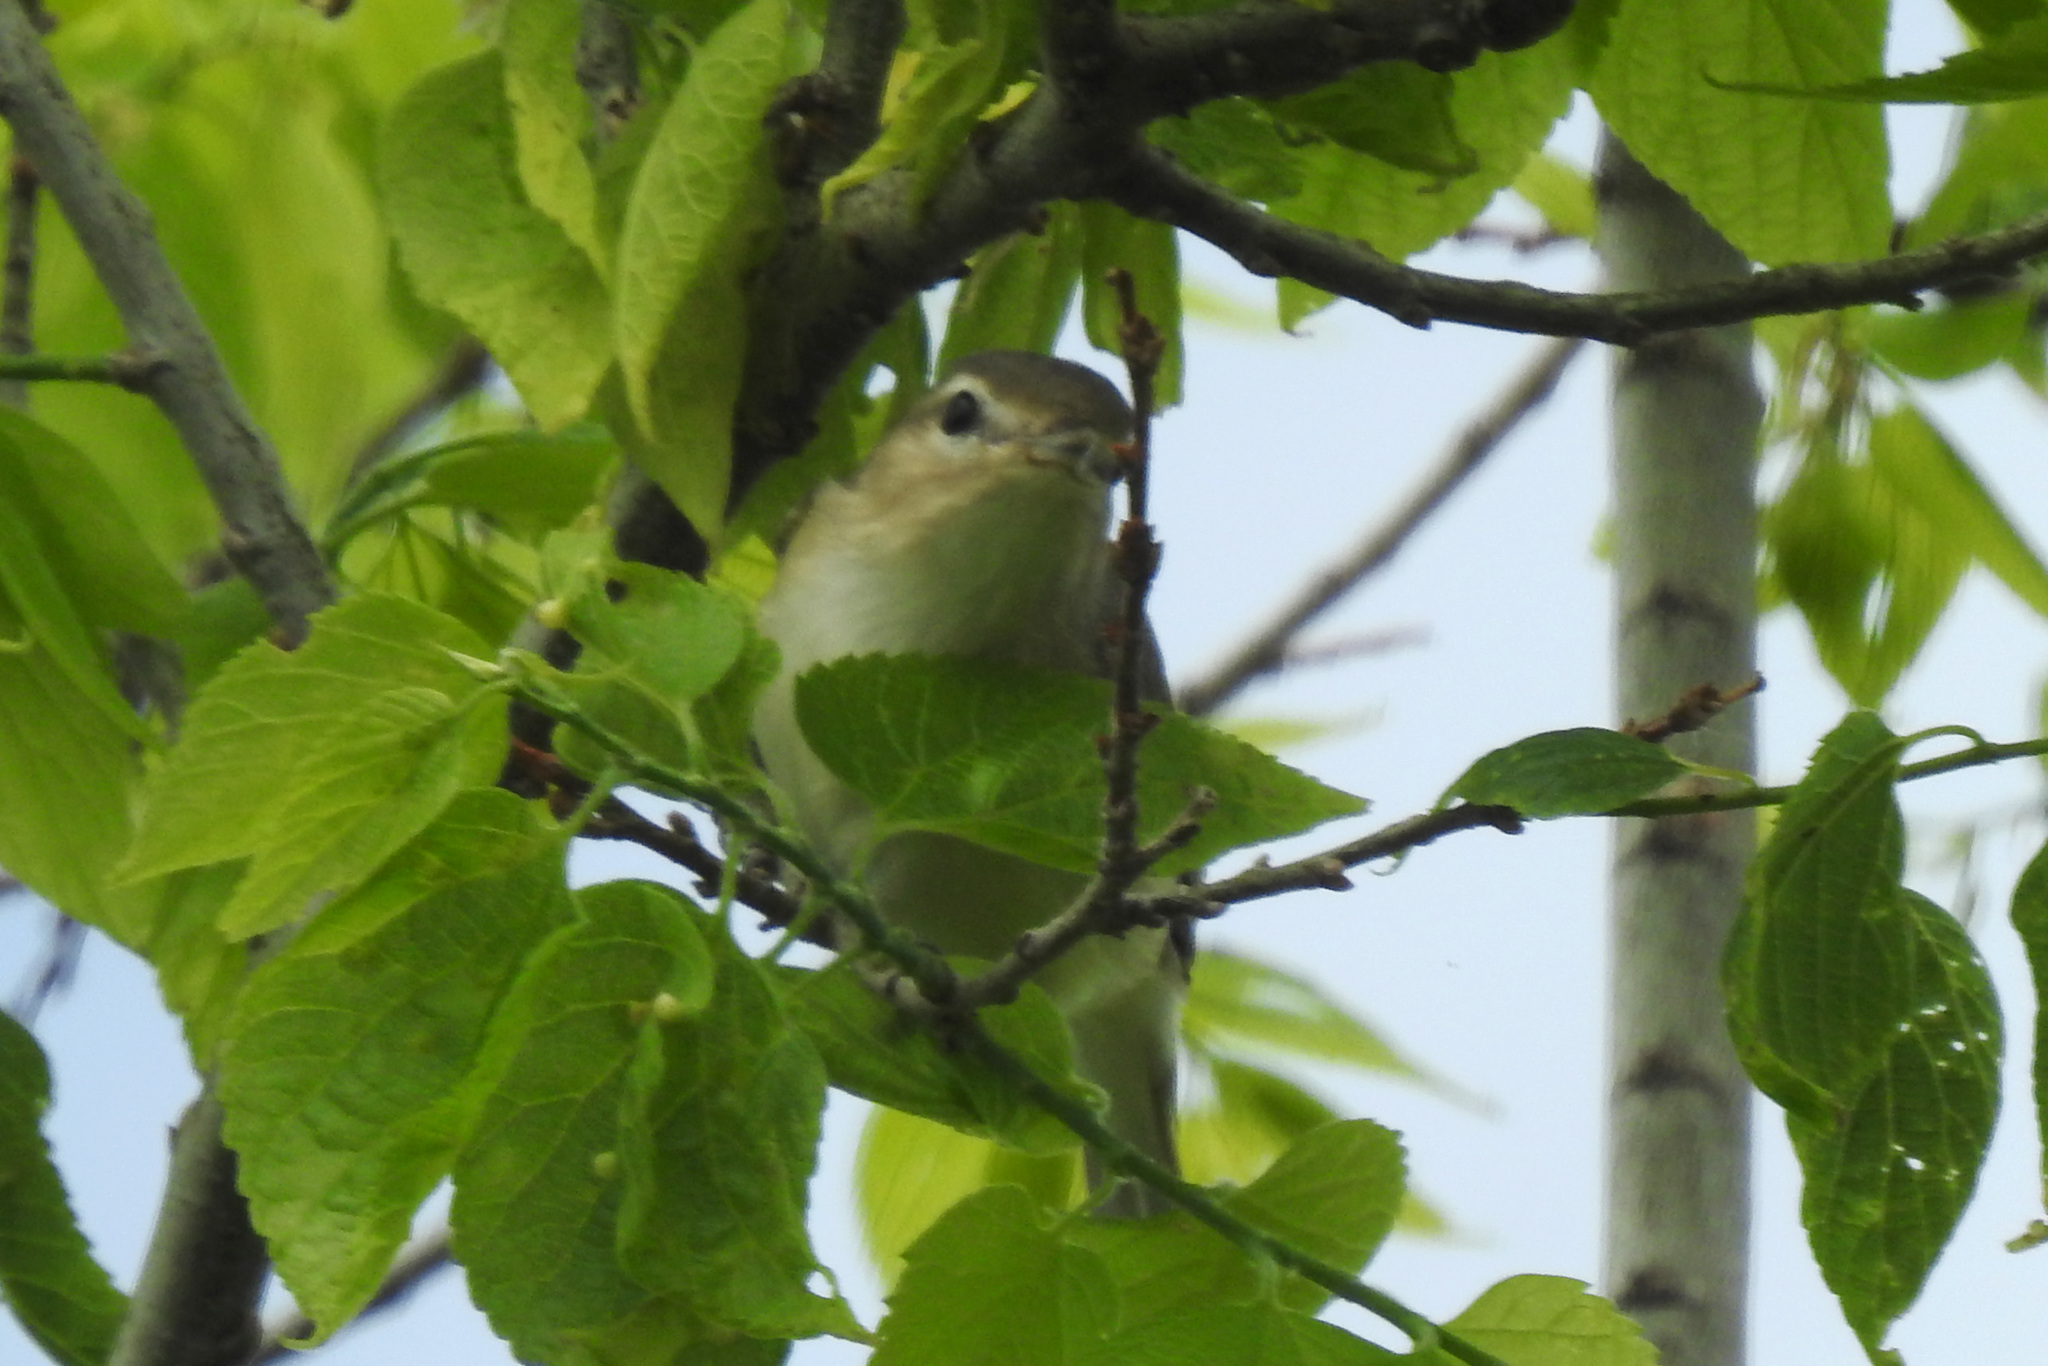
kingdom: Animalia
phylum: Chordata
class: Aves
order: Passeriformes
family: Vireonidae
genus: Vireo
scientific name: Vireo gilvus
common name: Warbling vireo
